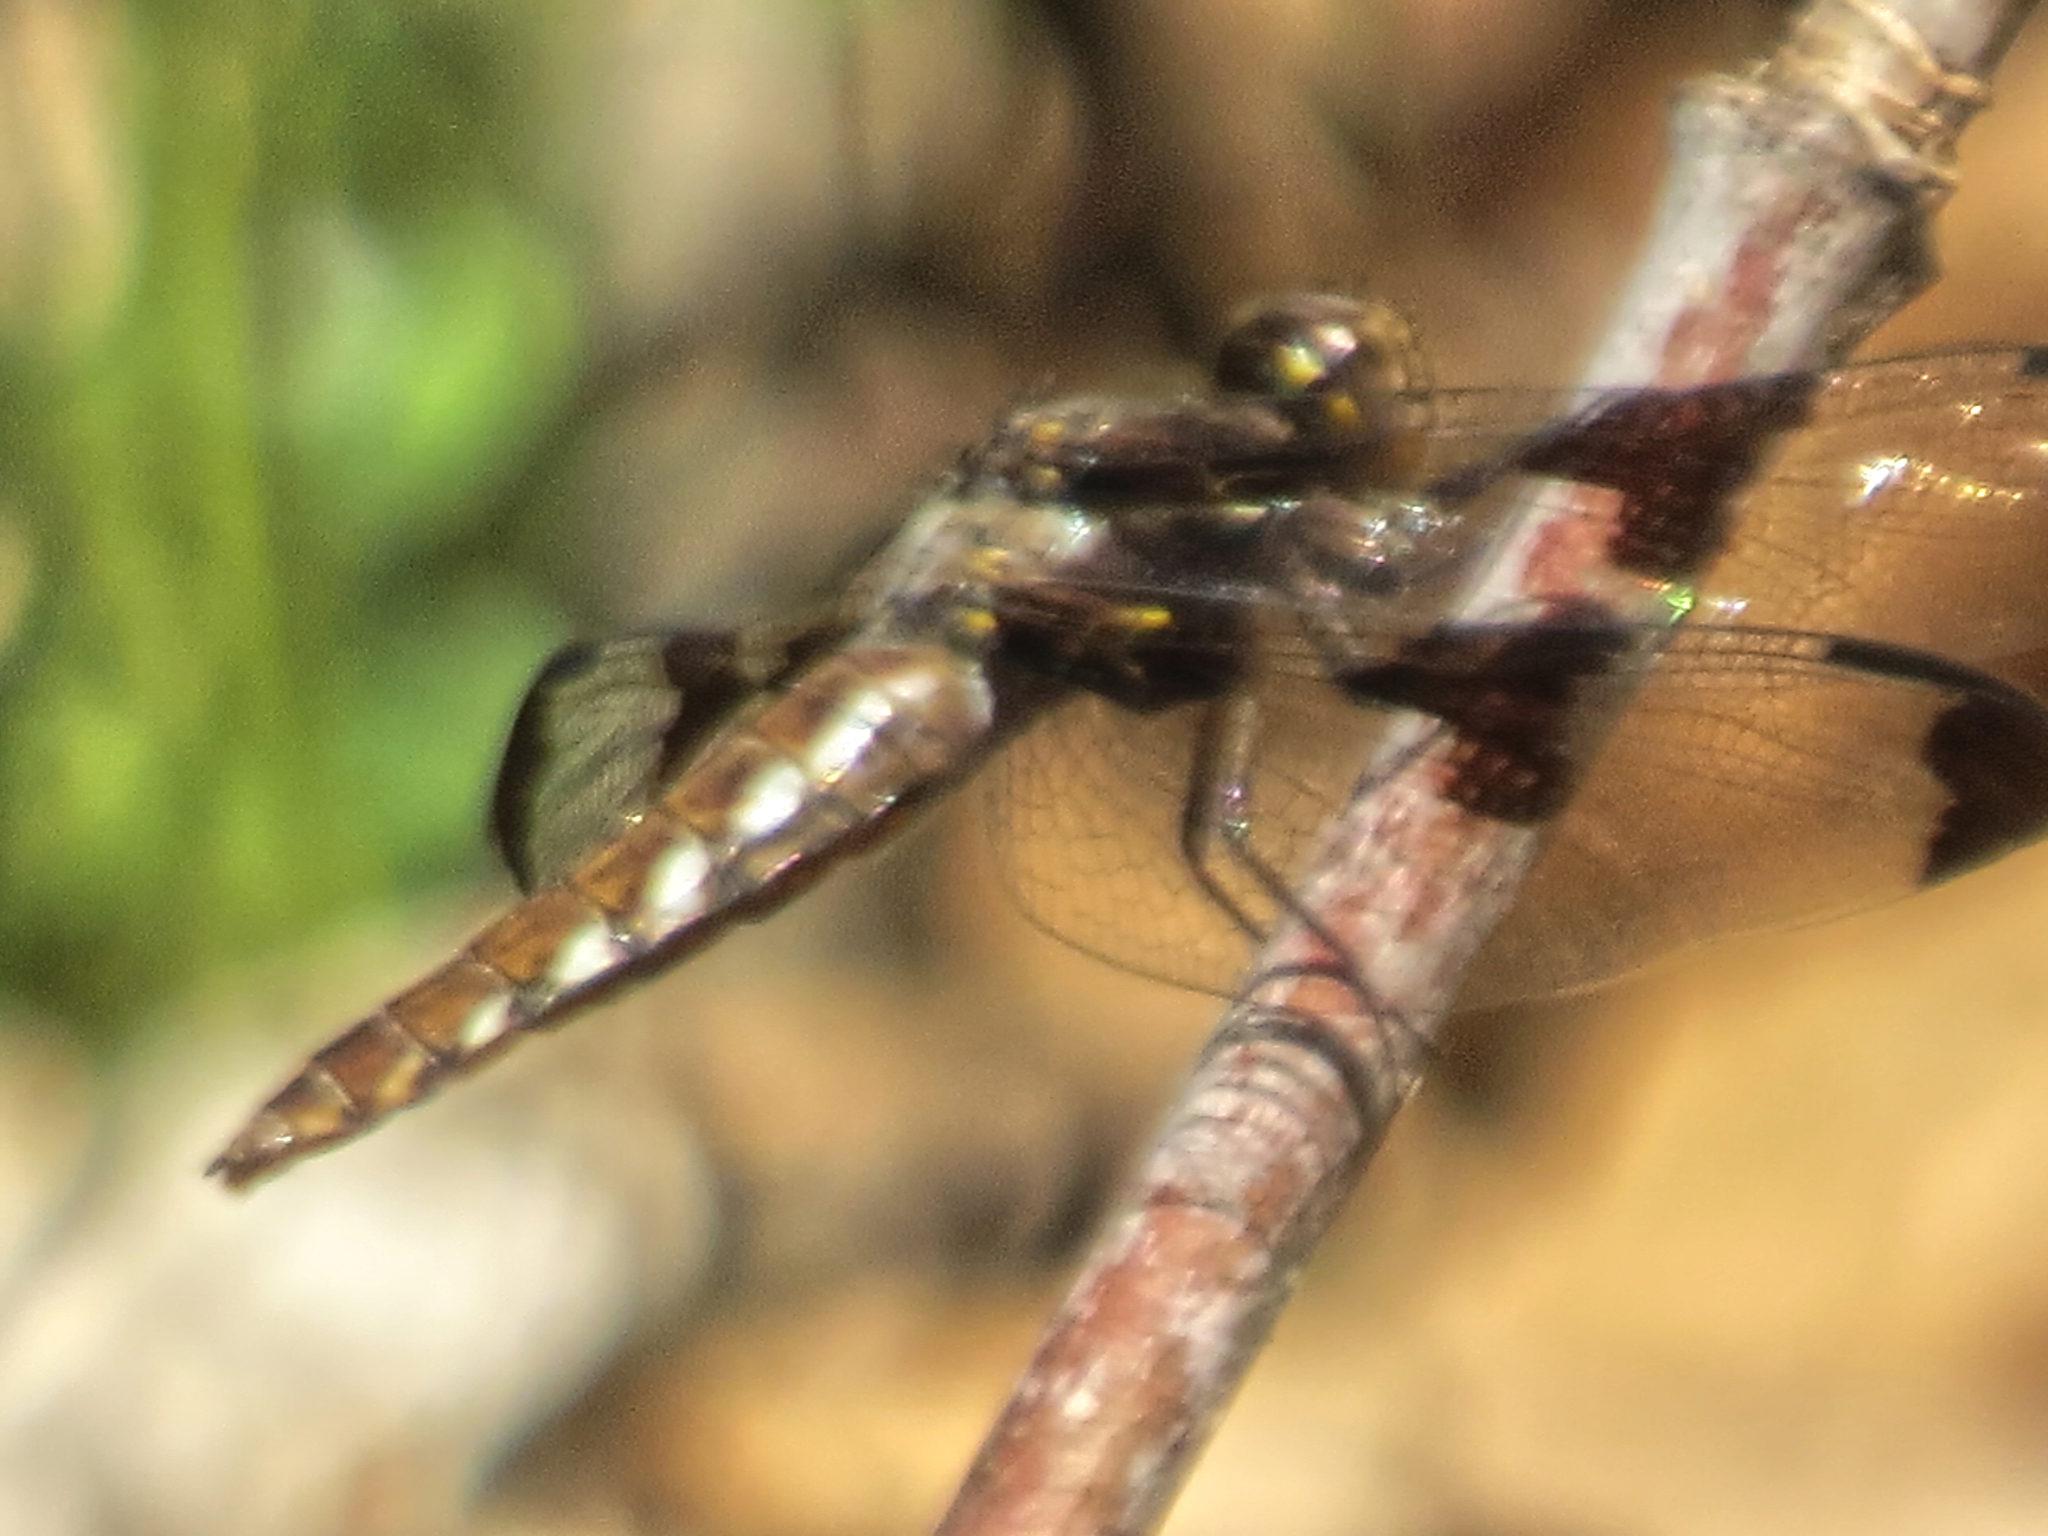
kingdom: Animalia
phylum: Arthropoda
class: Insecta
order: Odonata
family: Libellulidae
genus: Plathemis
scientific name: Plathemis lydia
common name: Common whitetail
